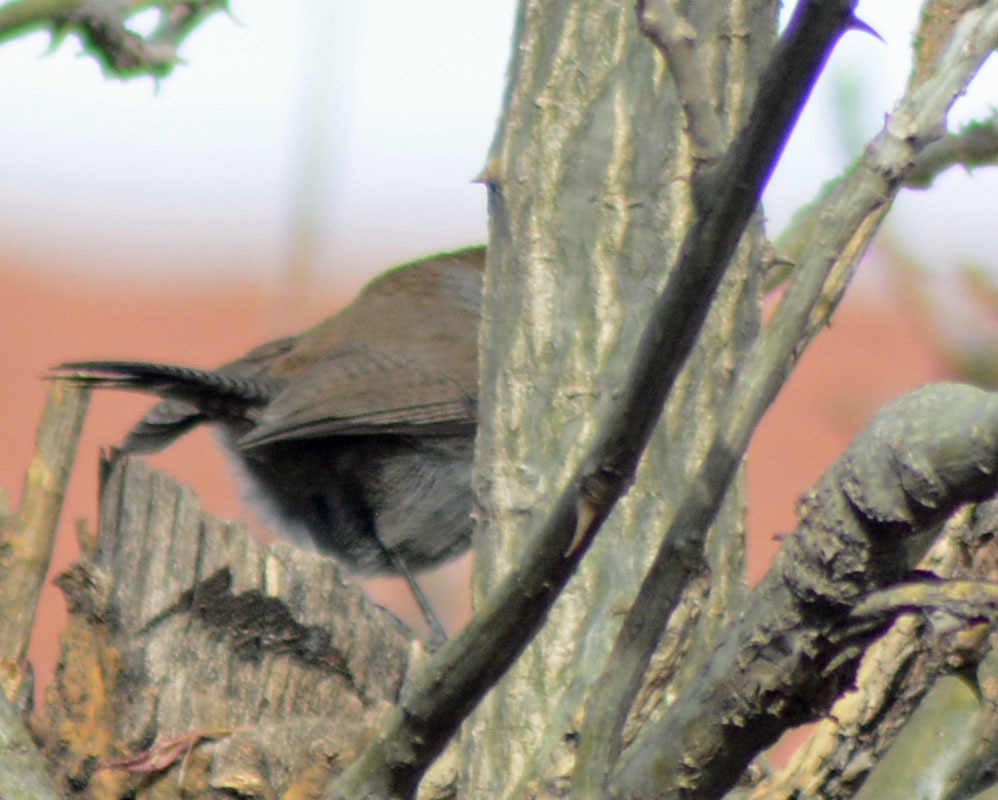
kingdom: Animalia
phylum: Chordata
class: Aves
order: Passeriformes
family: Troglodytidae
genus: Thryomanes
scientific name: Thryomanes bewickii
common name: Bewick's wren
